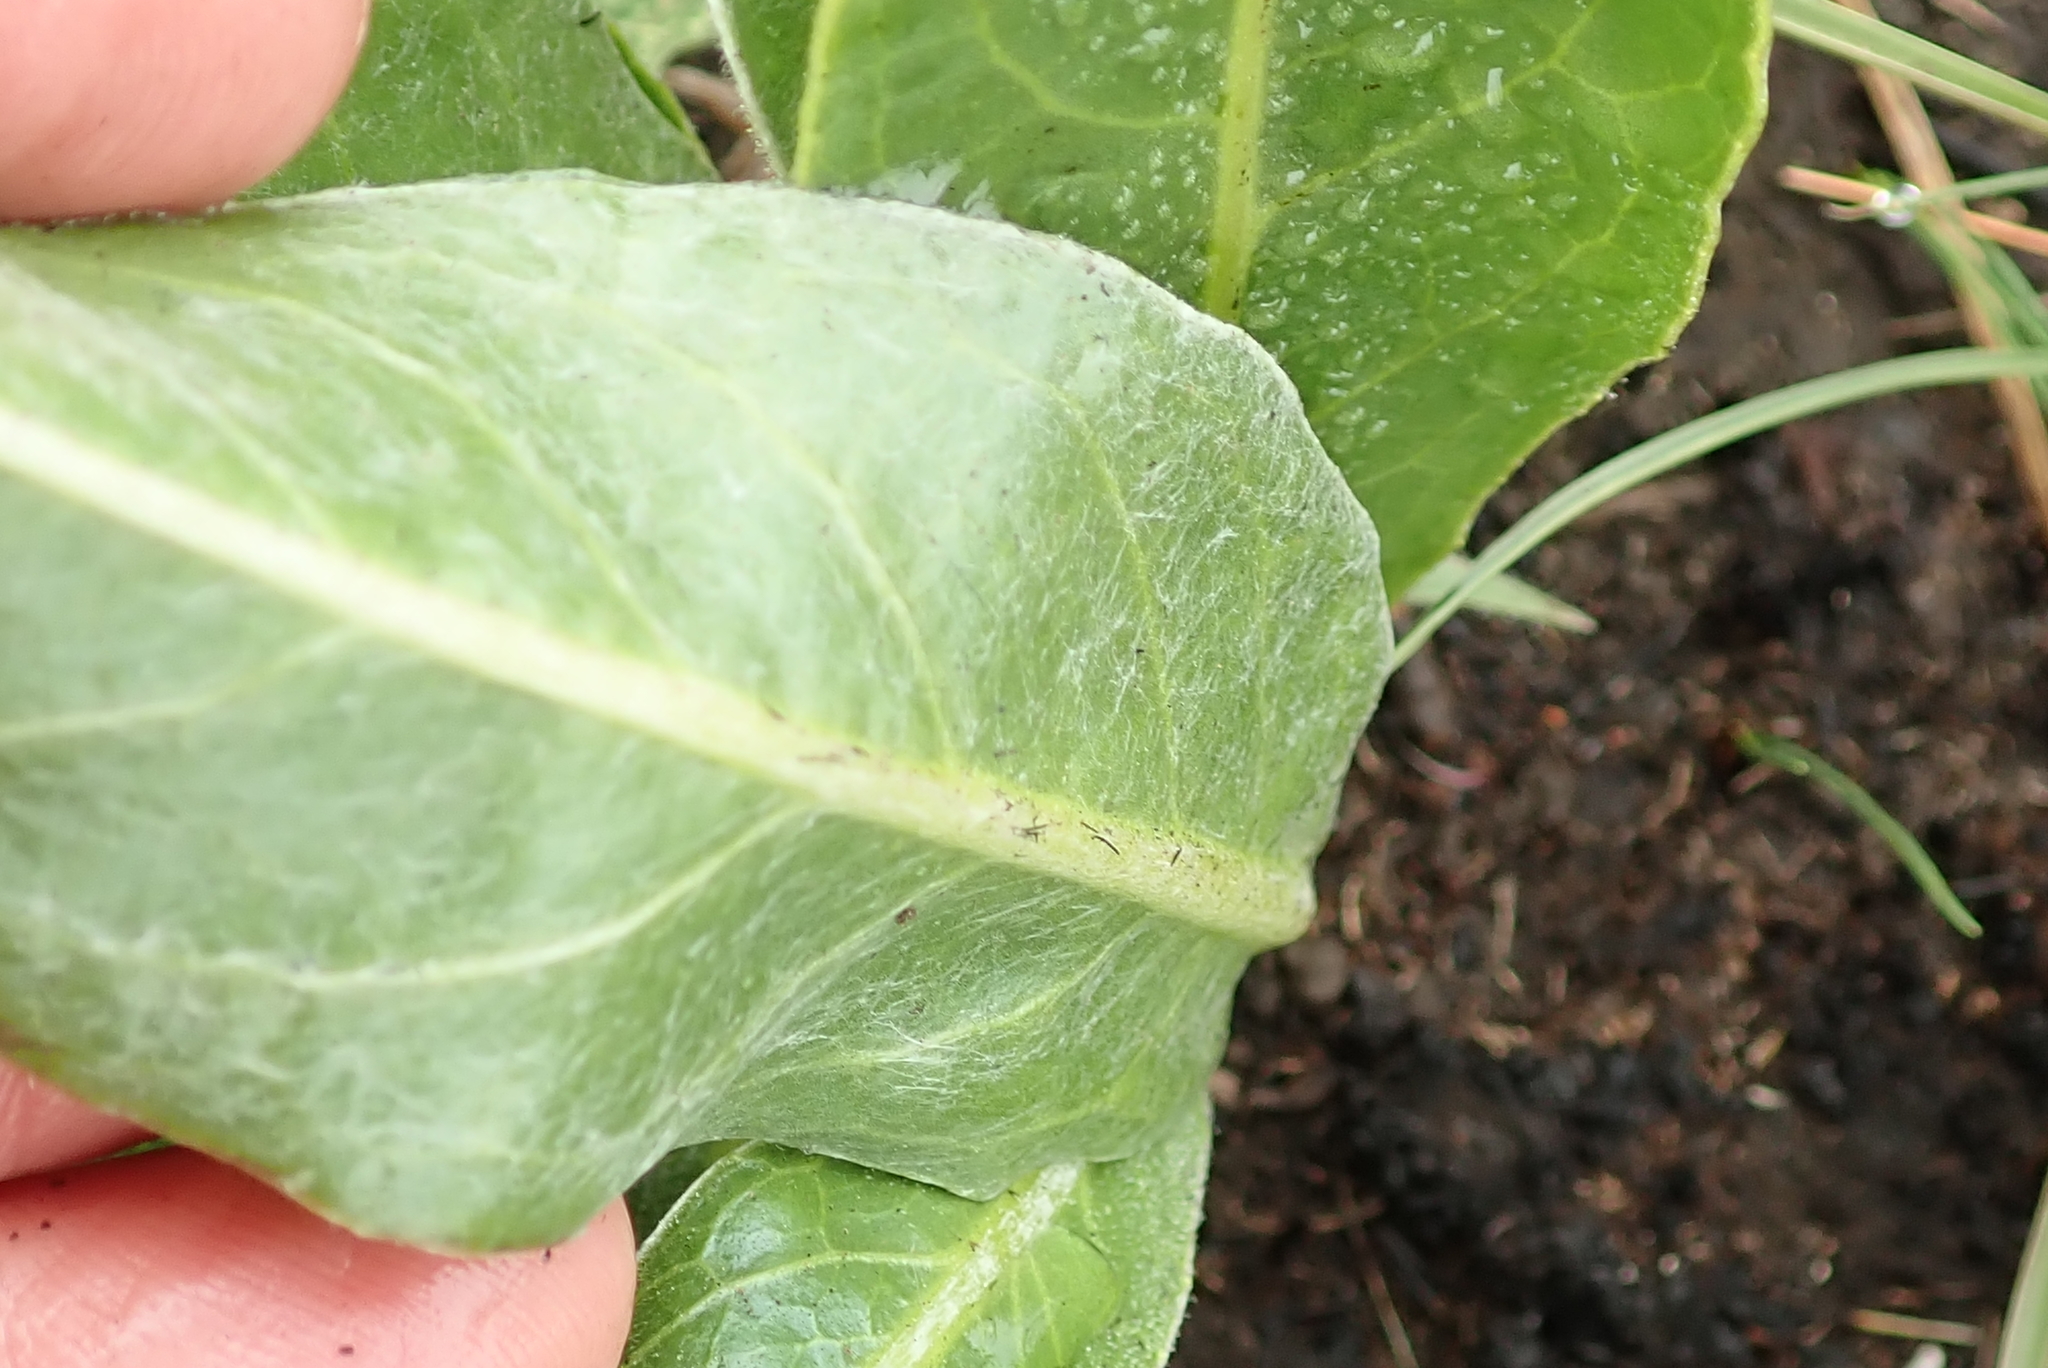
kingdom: Plantae
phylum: Tracheophyta
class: Magnoliopsida
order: Asterales
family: Asteraceae
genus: Gerbera
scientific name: Gerbera aurantiaca
